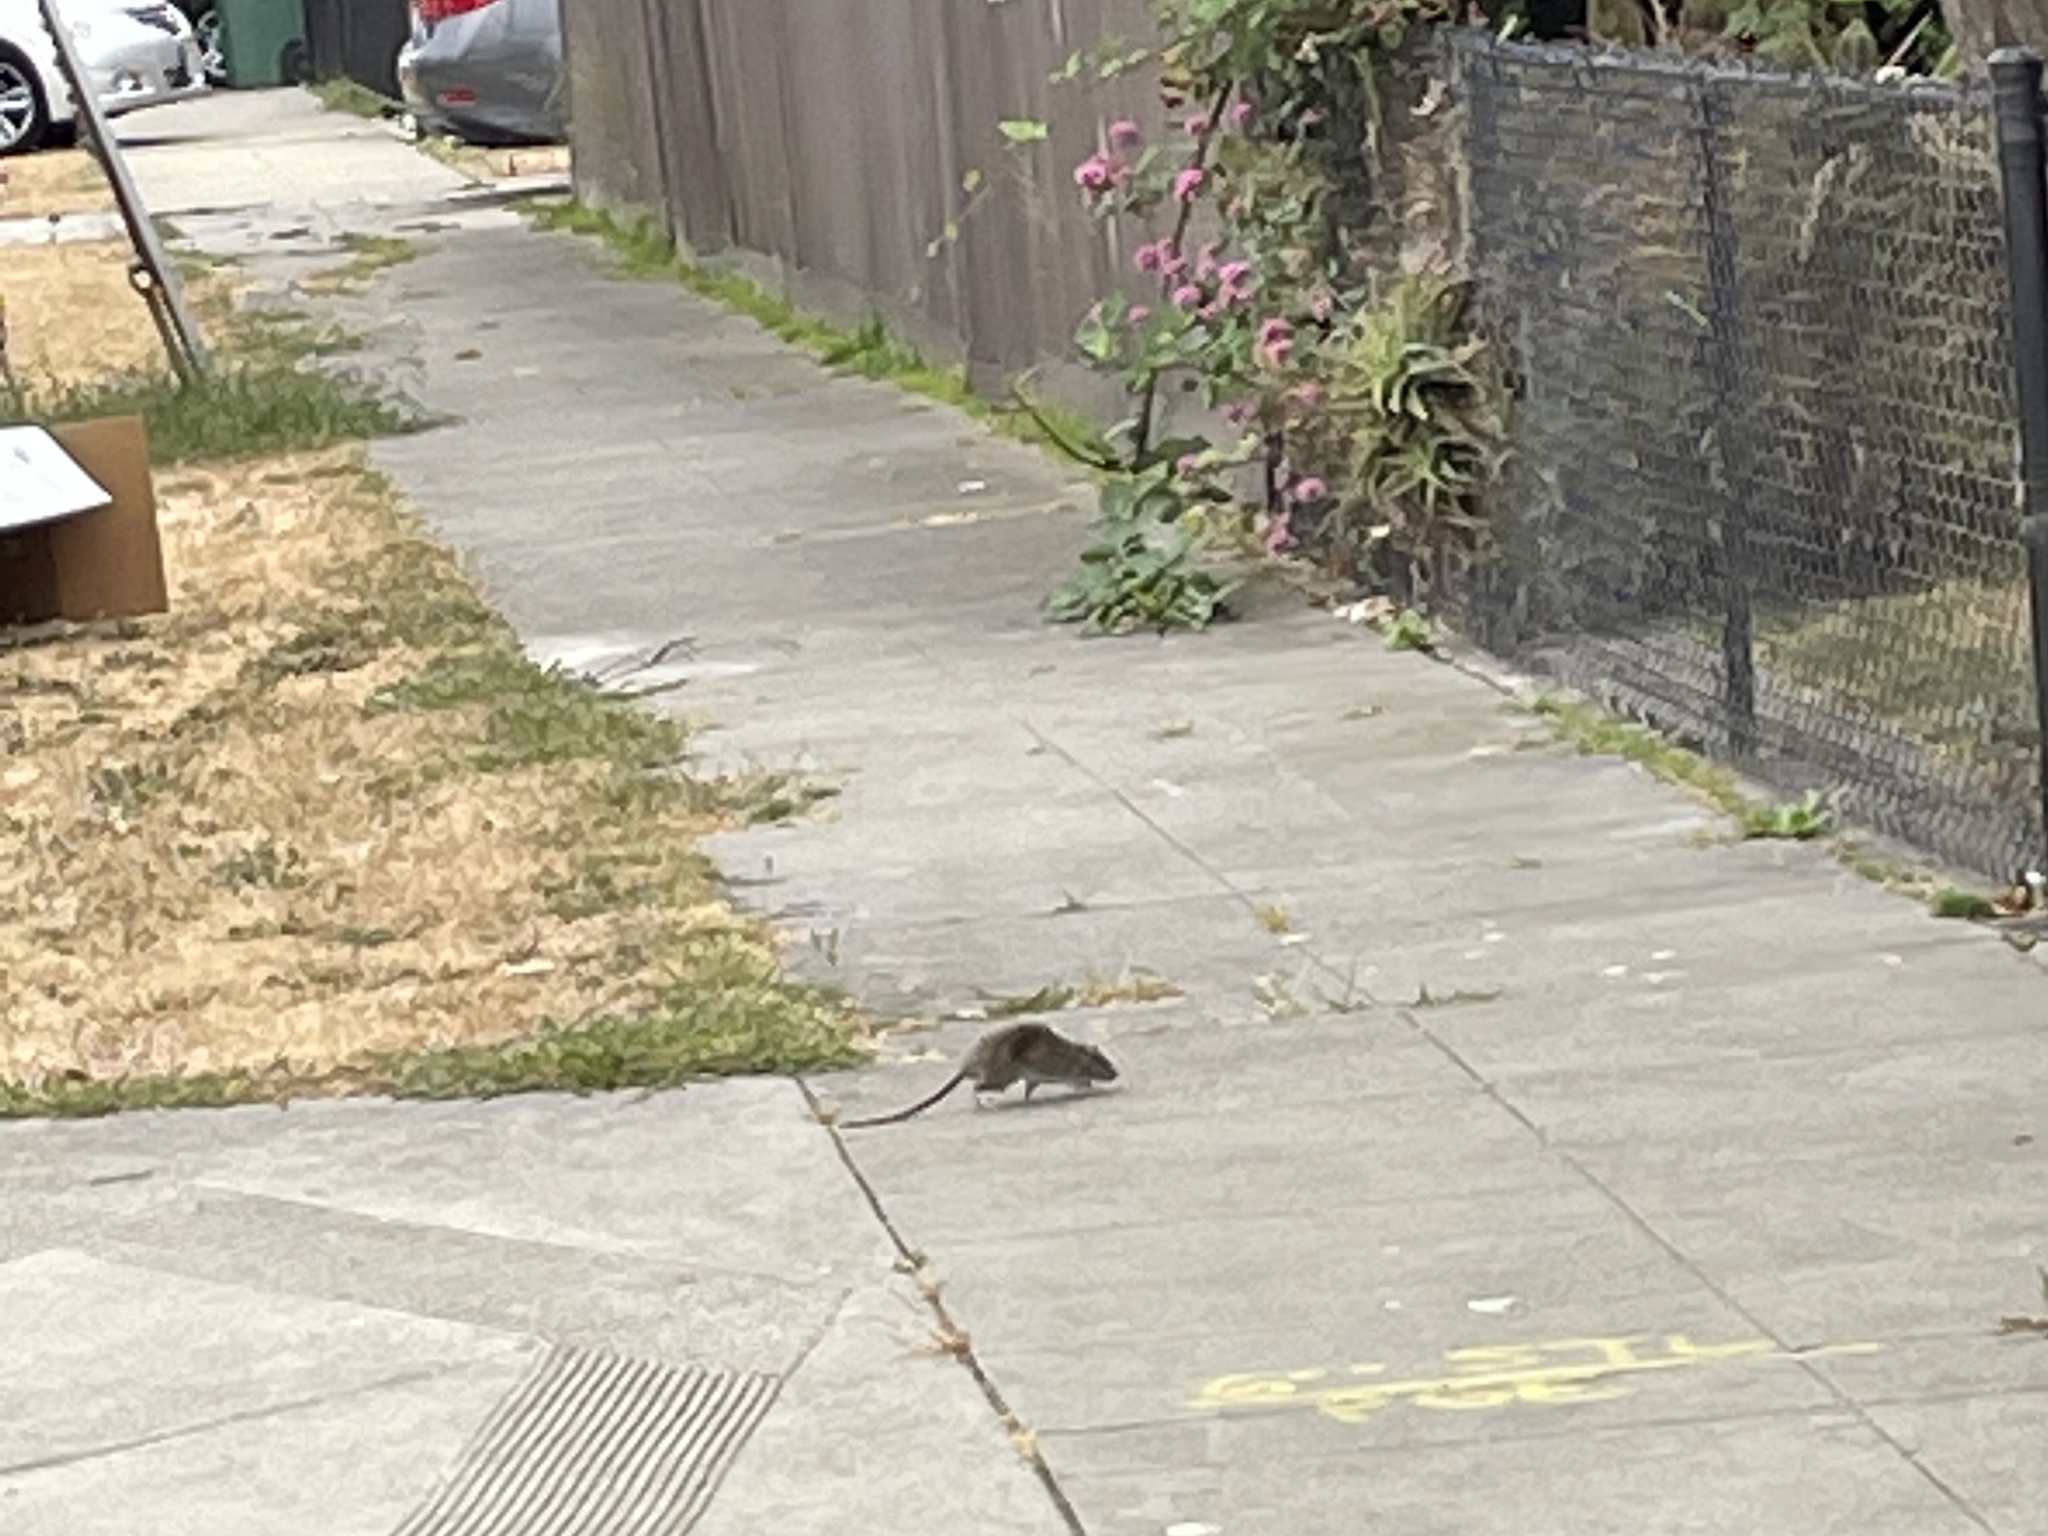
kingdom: Animalia
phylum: Chordata
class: Mammalia
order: Rodentia
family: Muridae
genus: Rattus
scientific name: Rattus norvegicus
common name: Brown rat
